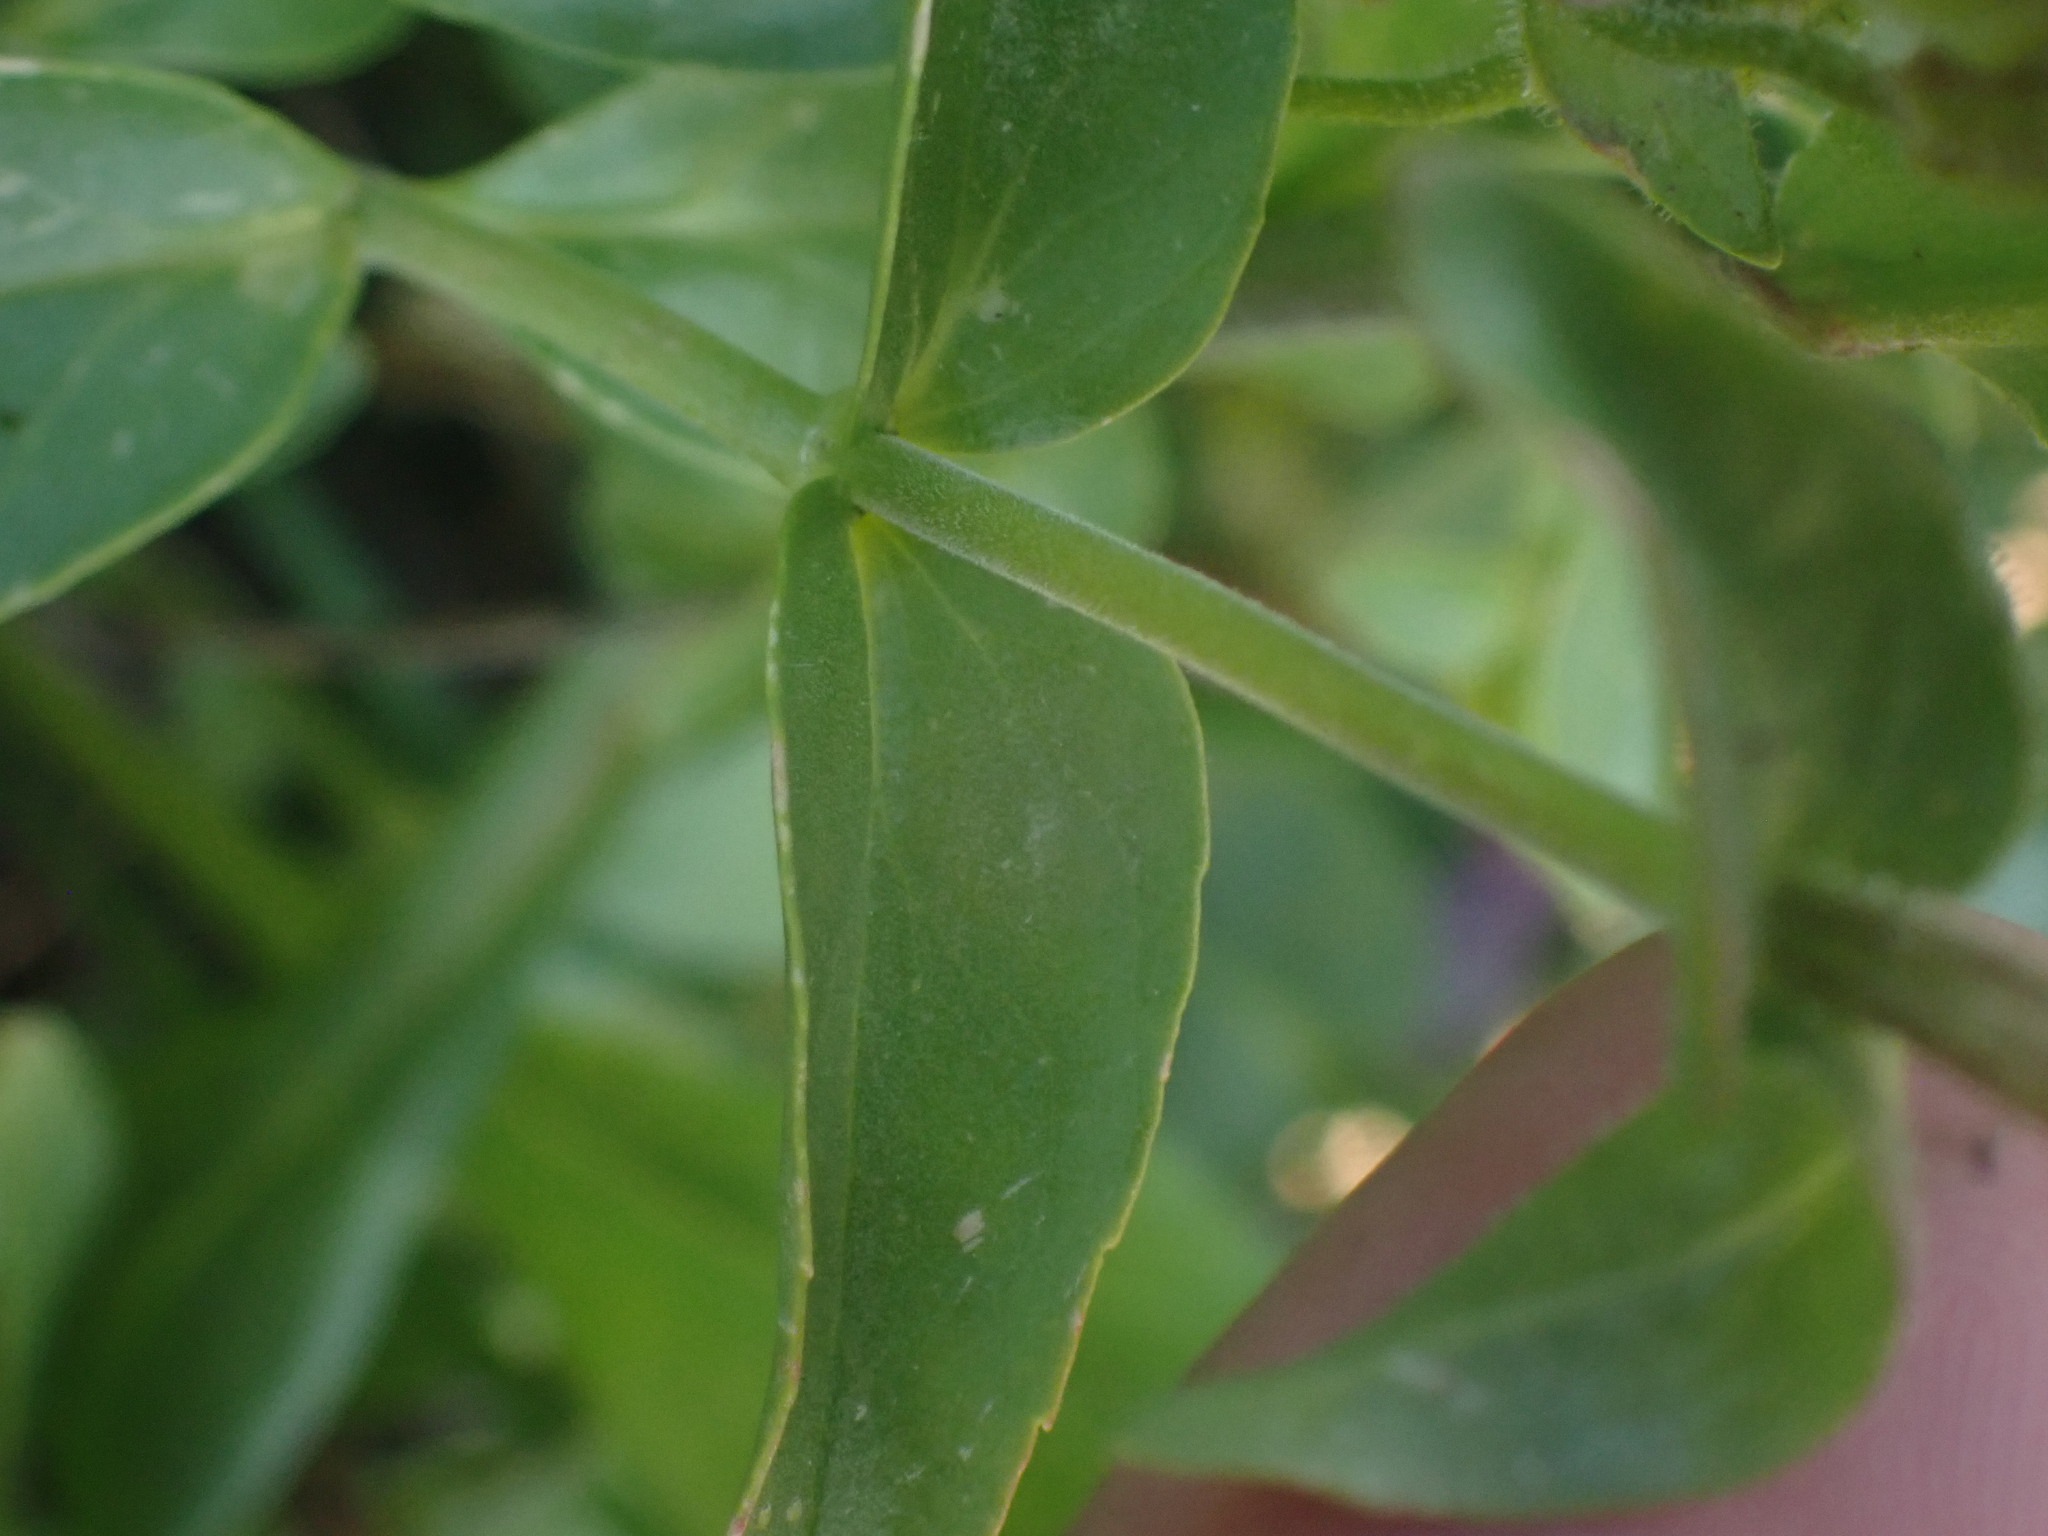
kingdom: Plantae
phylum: Tracheophyta
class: Magnoliopsida
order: Lamiales
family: Plantaginaceae
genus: Penstemon
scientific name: Penstemon ellipticus
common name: Alpine beardtongue
